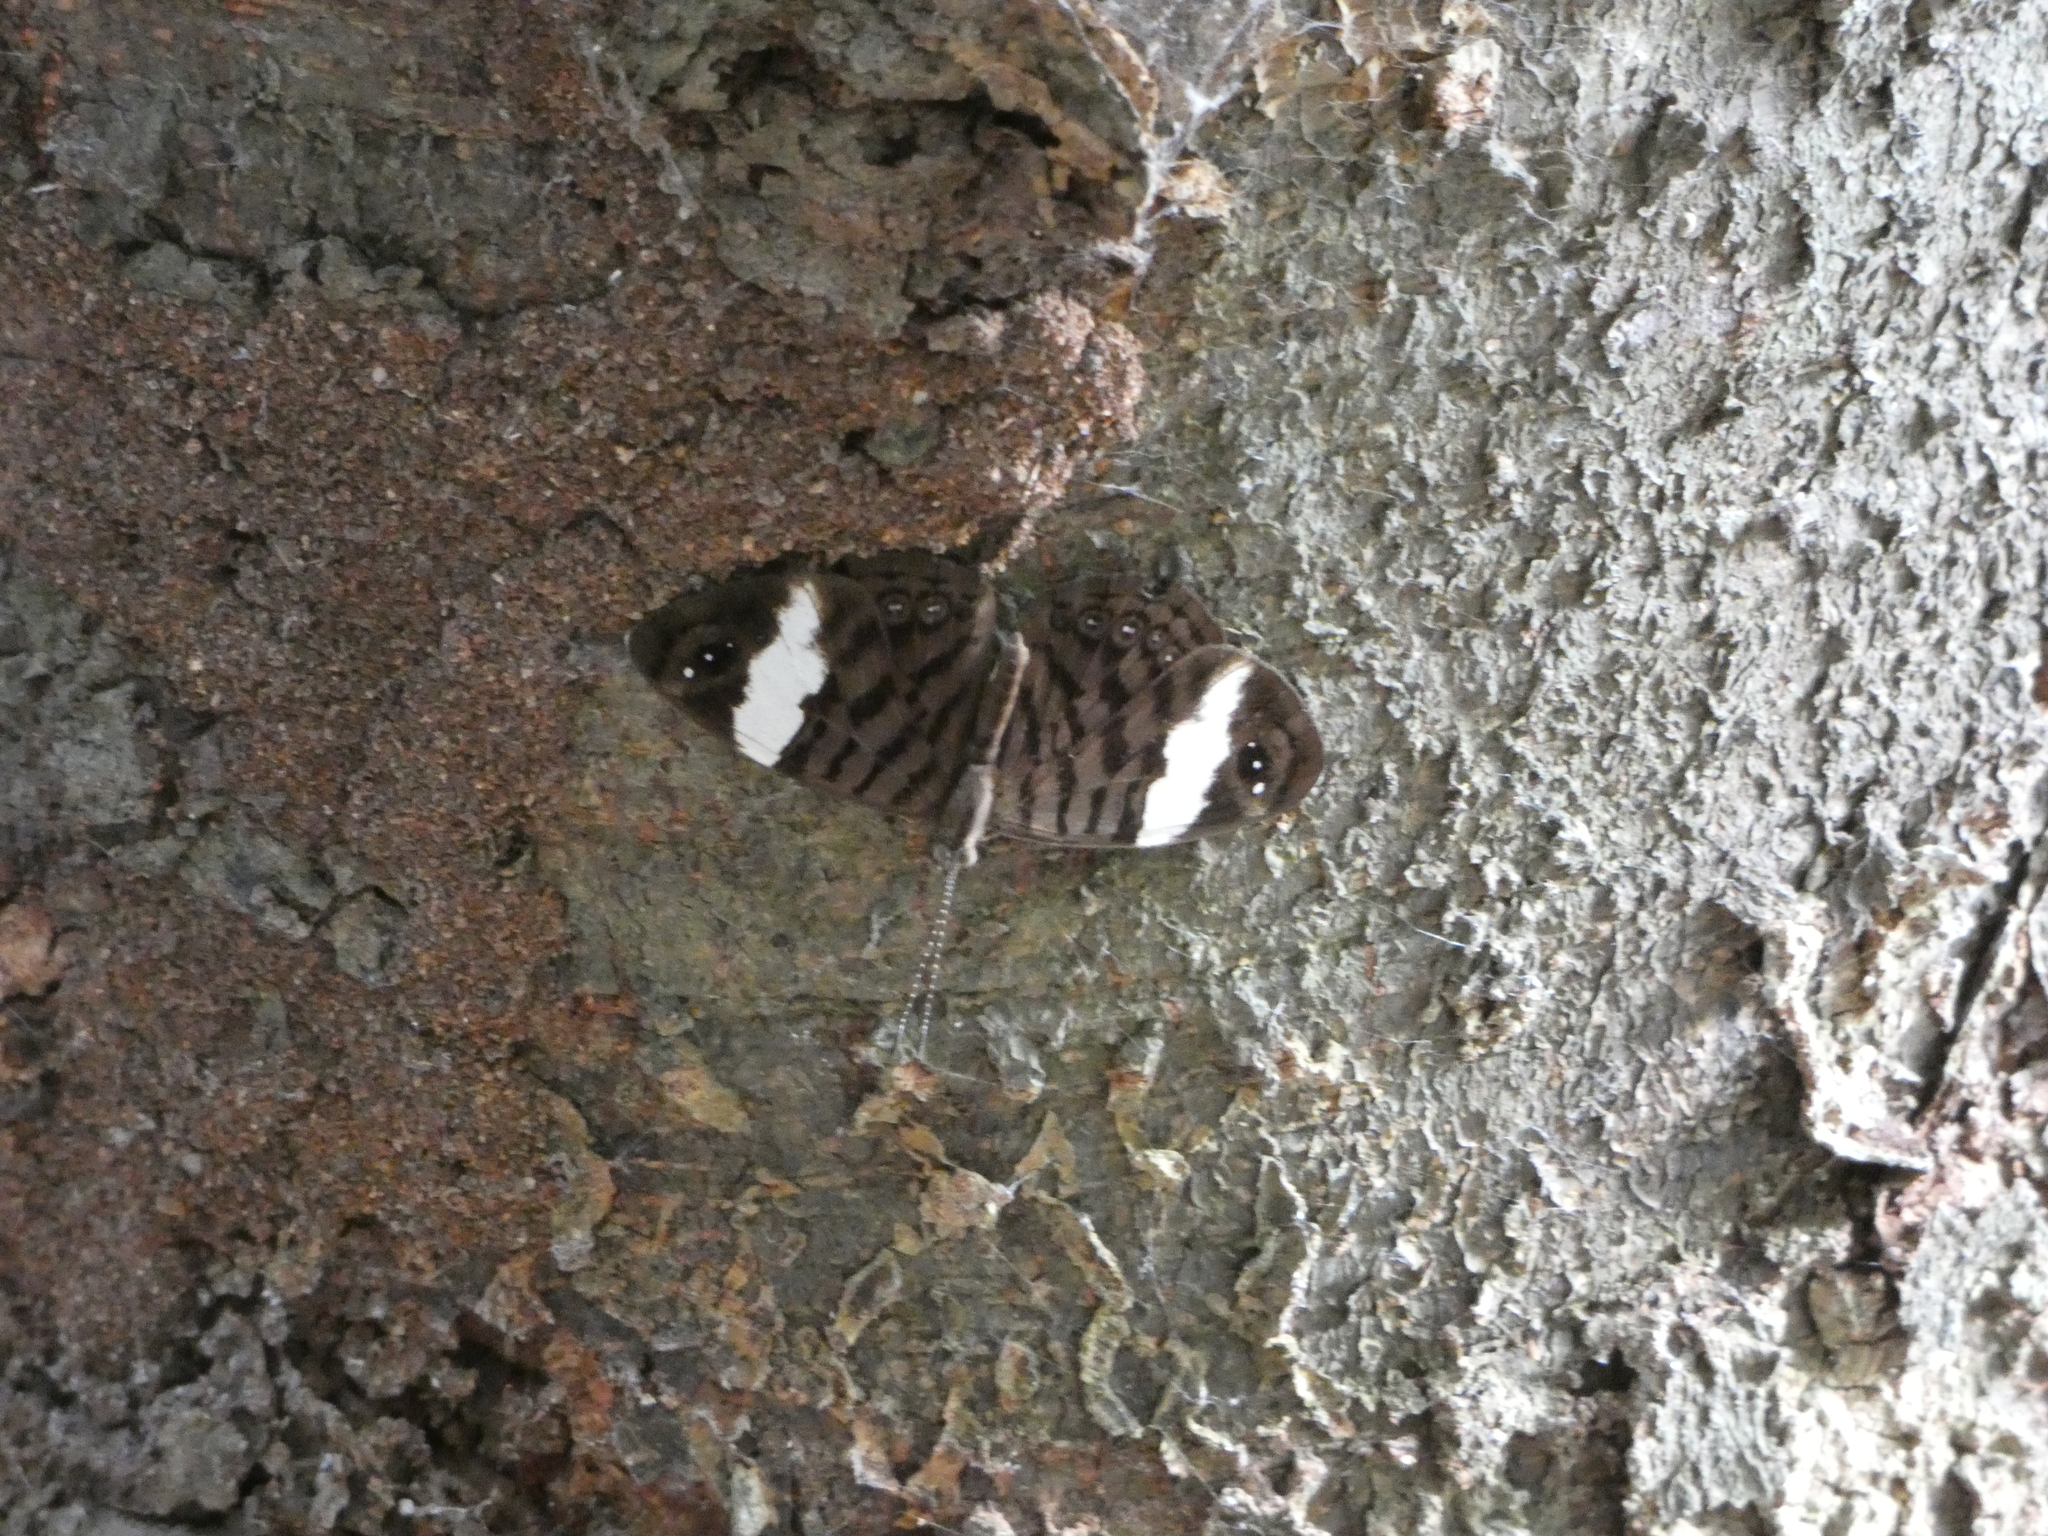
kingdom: Animalia
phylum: Arthropoda
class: Insecta
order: Lepidoptera
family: Nymphalidae
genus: Ectima
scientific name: Ectima thecla
